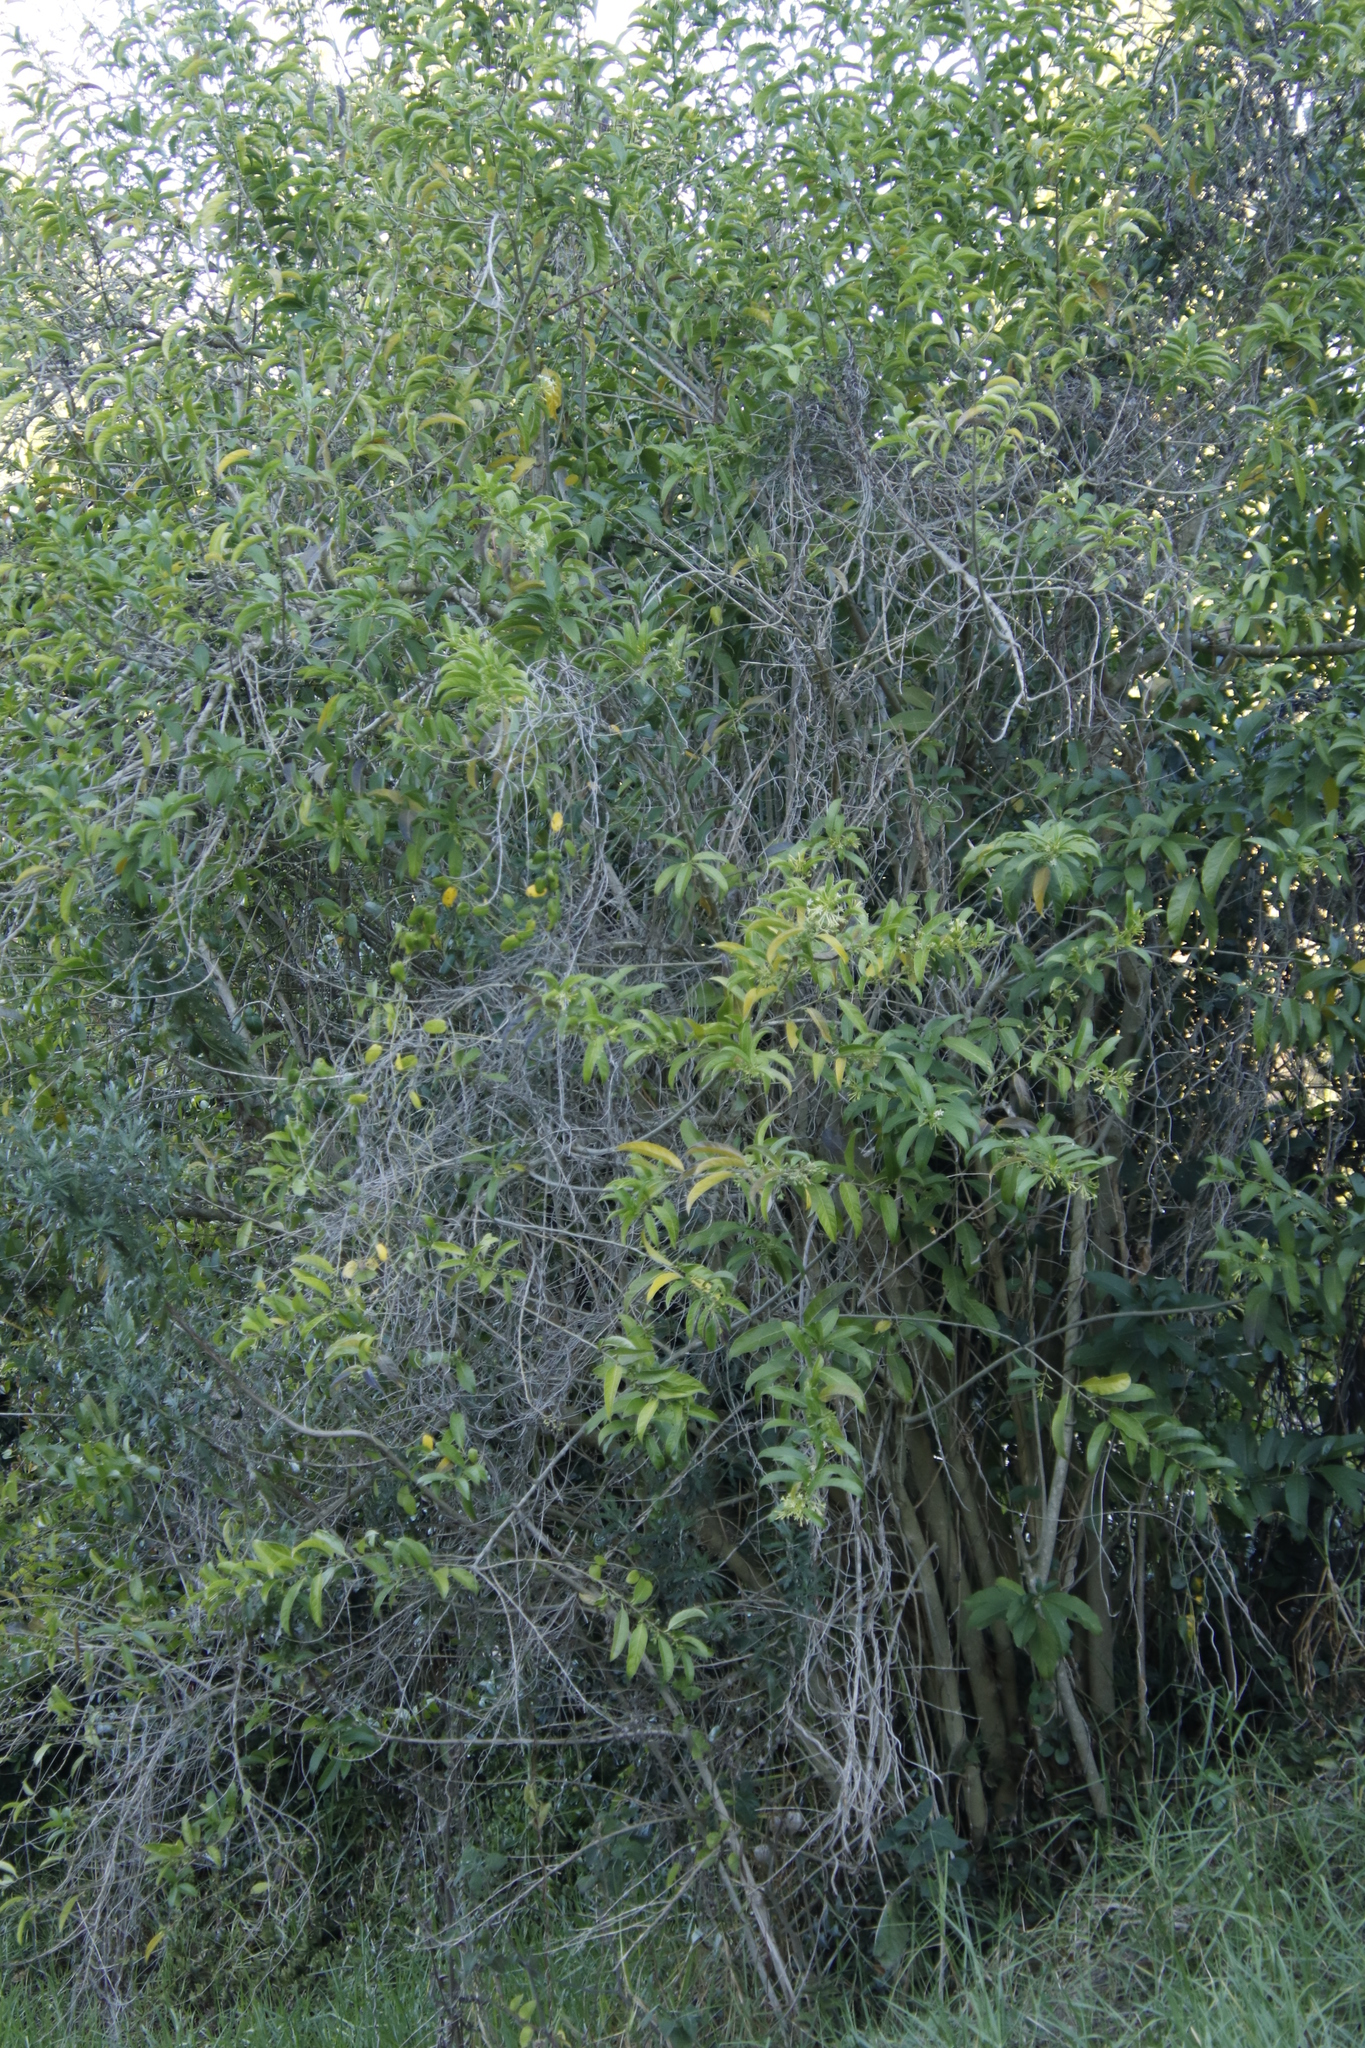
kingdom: Plantae
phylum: Tracheophyta
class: Magnoliopsida
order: Solanales
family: Solanaceae
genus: Cestrum
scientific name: Cestrum laevigatum
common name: Inkberry
